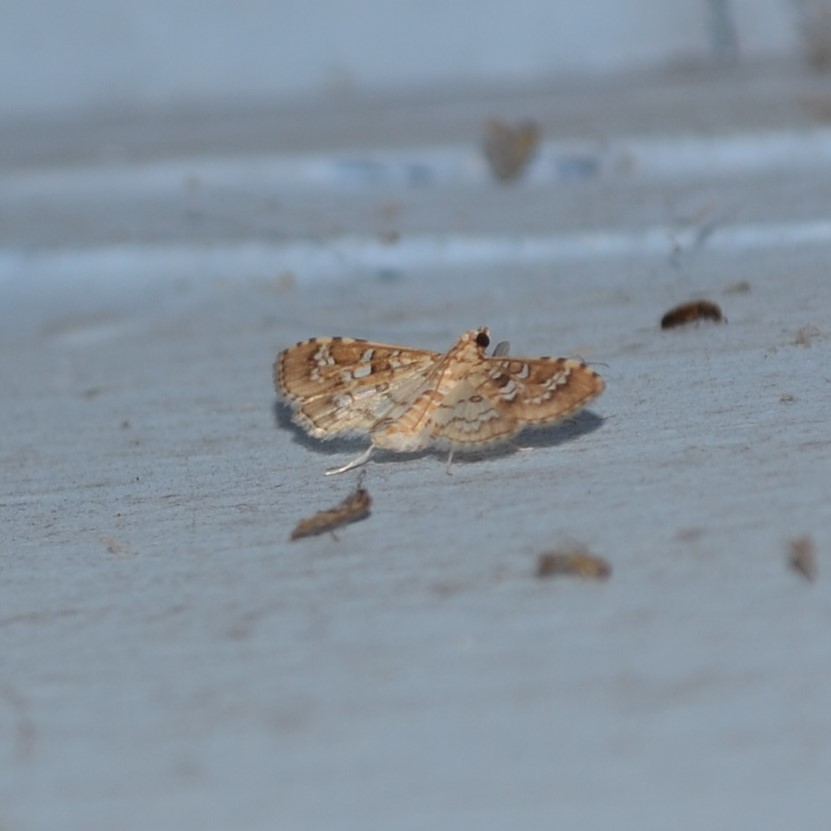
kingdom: Animalia
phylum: Arthropoda
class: Insecta
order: Lepidoptera
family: Crambidae
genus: Samea
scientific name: Samea multiplicalis
